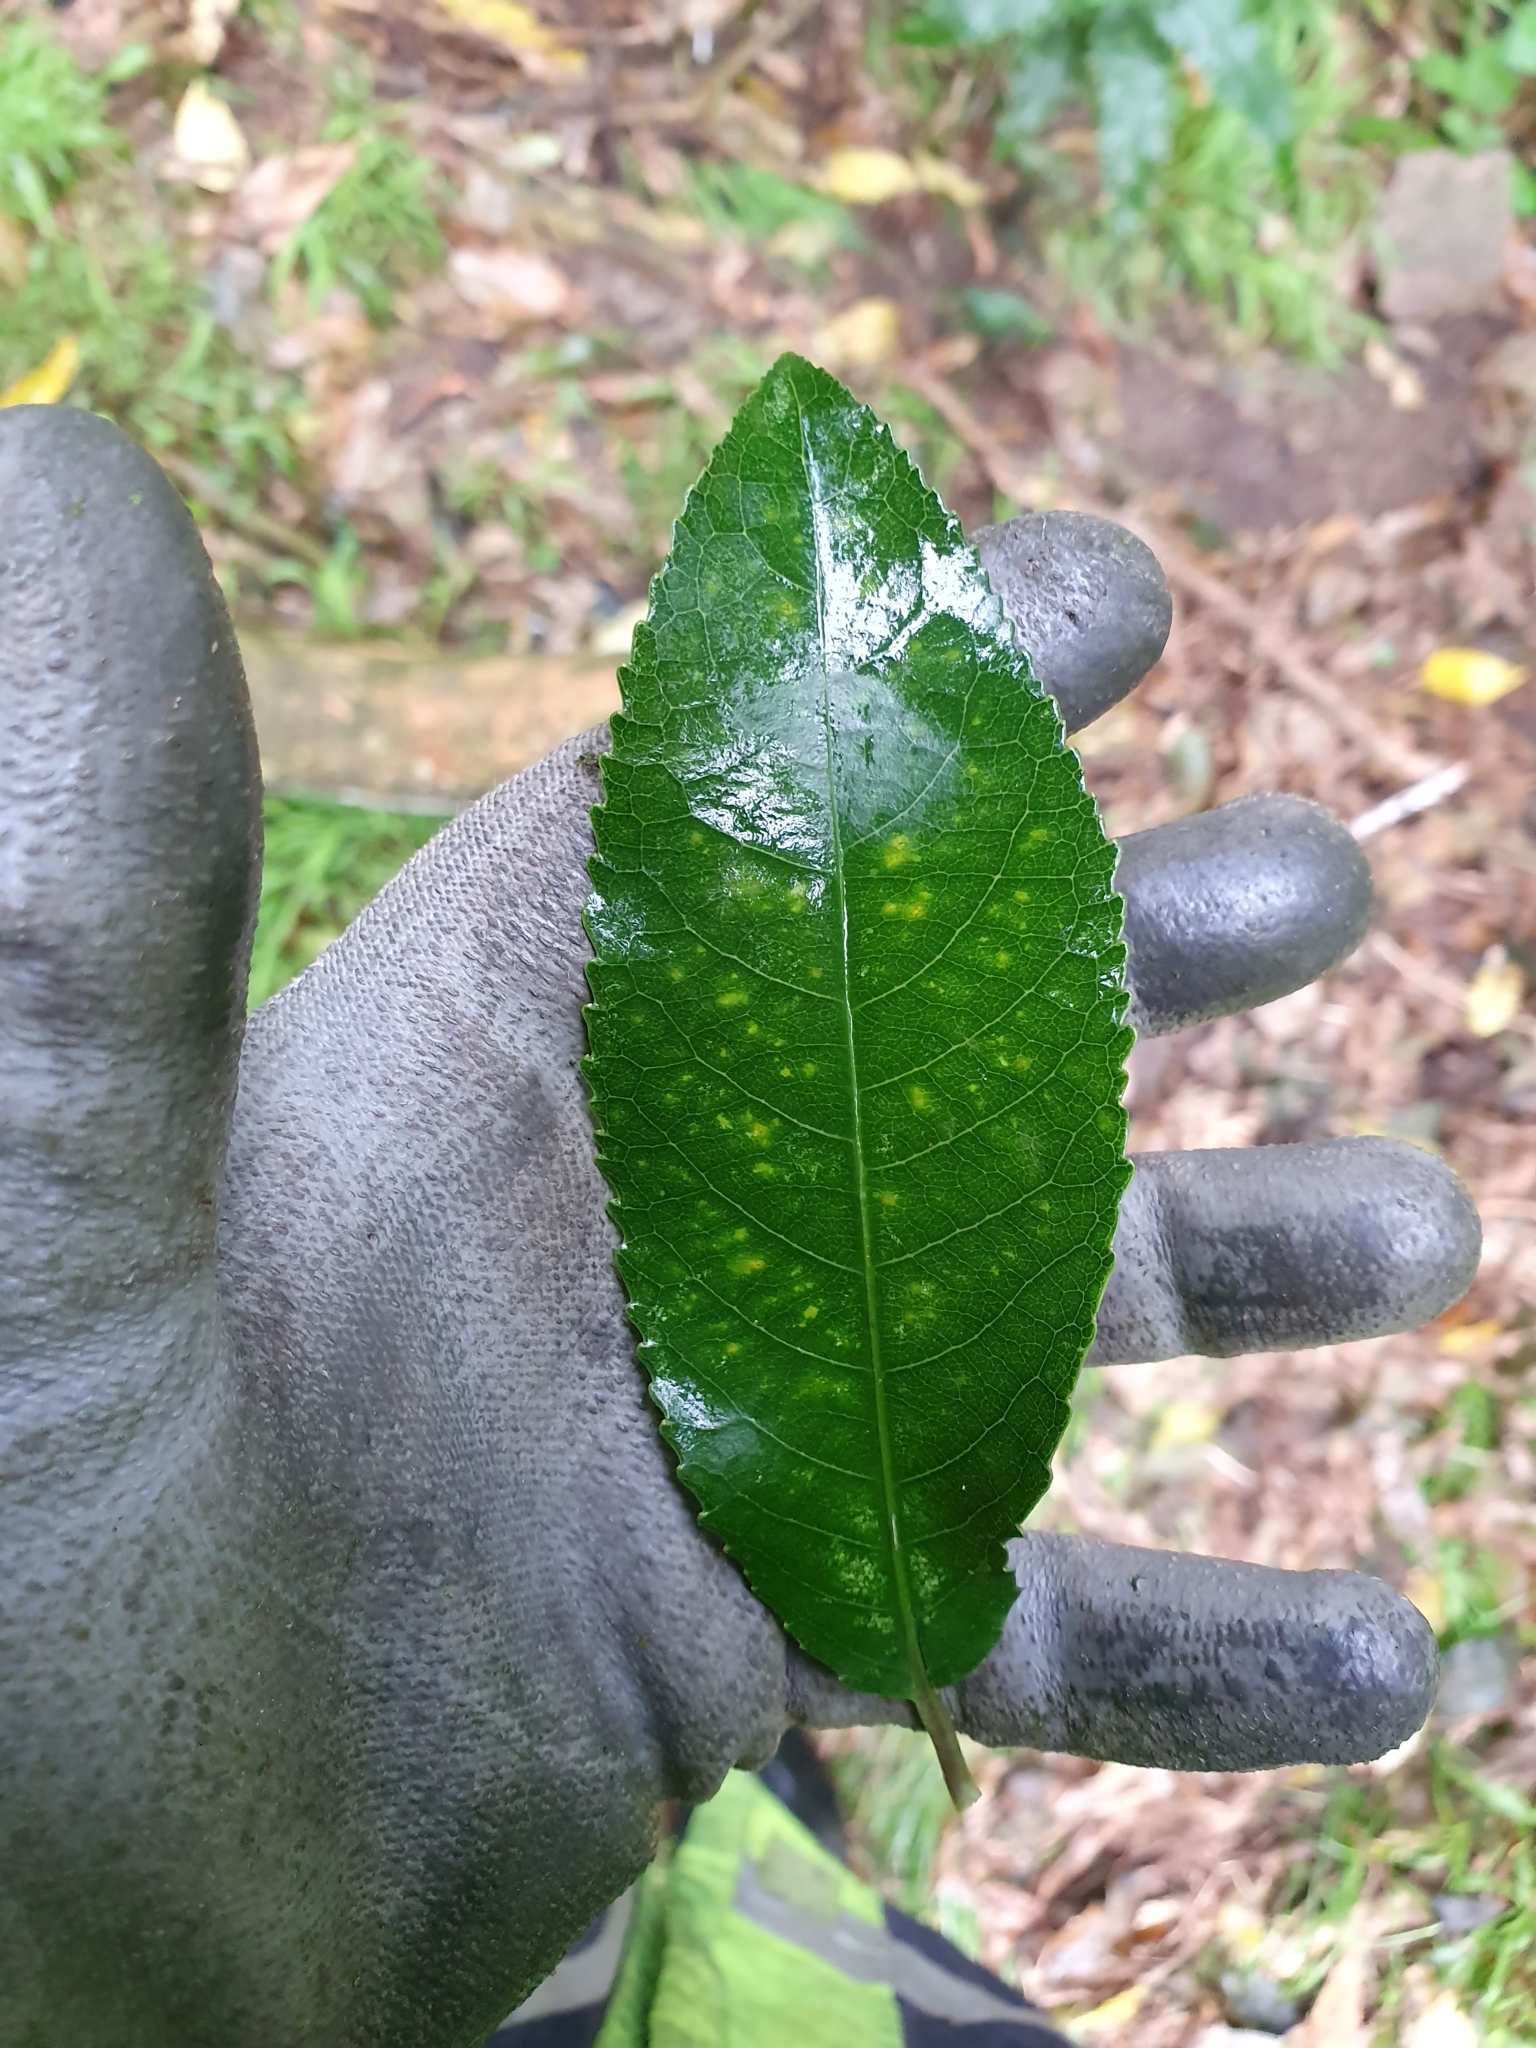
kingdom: Plantae
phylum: Tracheophyta
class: Magnoliopsida
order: Malpighiales
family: Violaceae
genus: Melicytus
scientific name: Melicytus ramiflorus
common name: Mahoe
